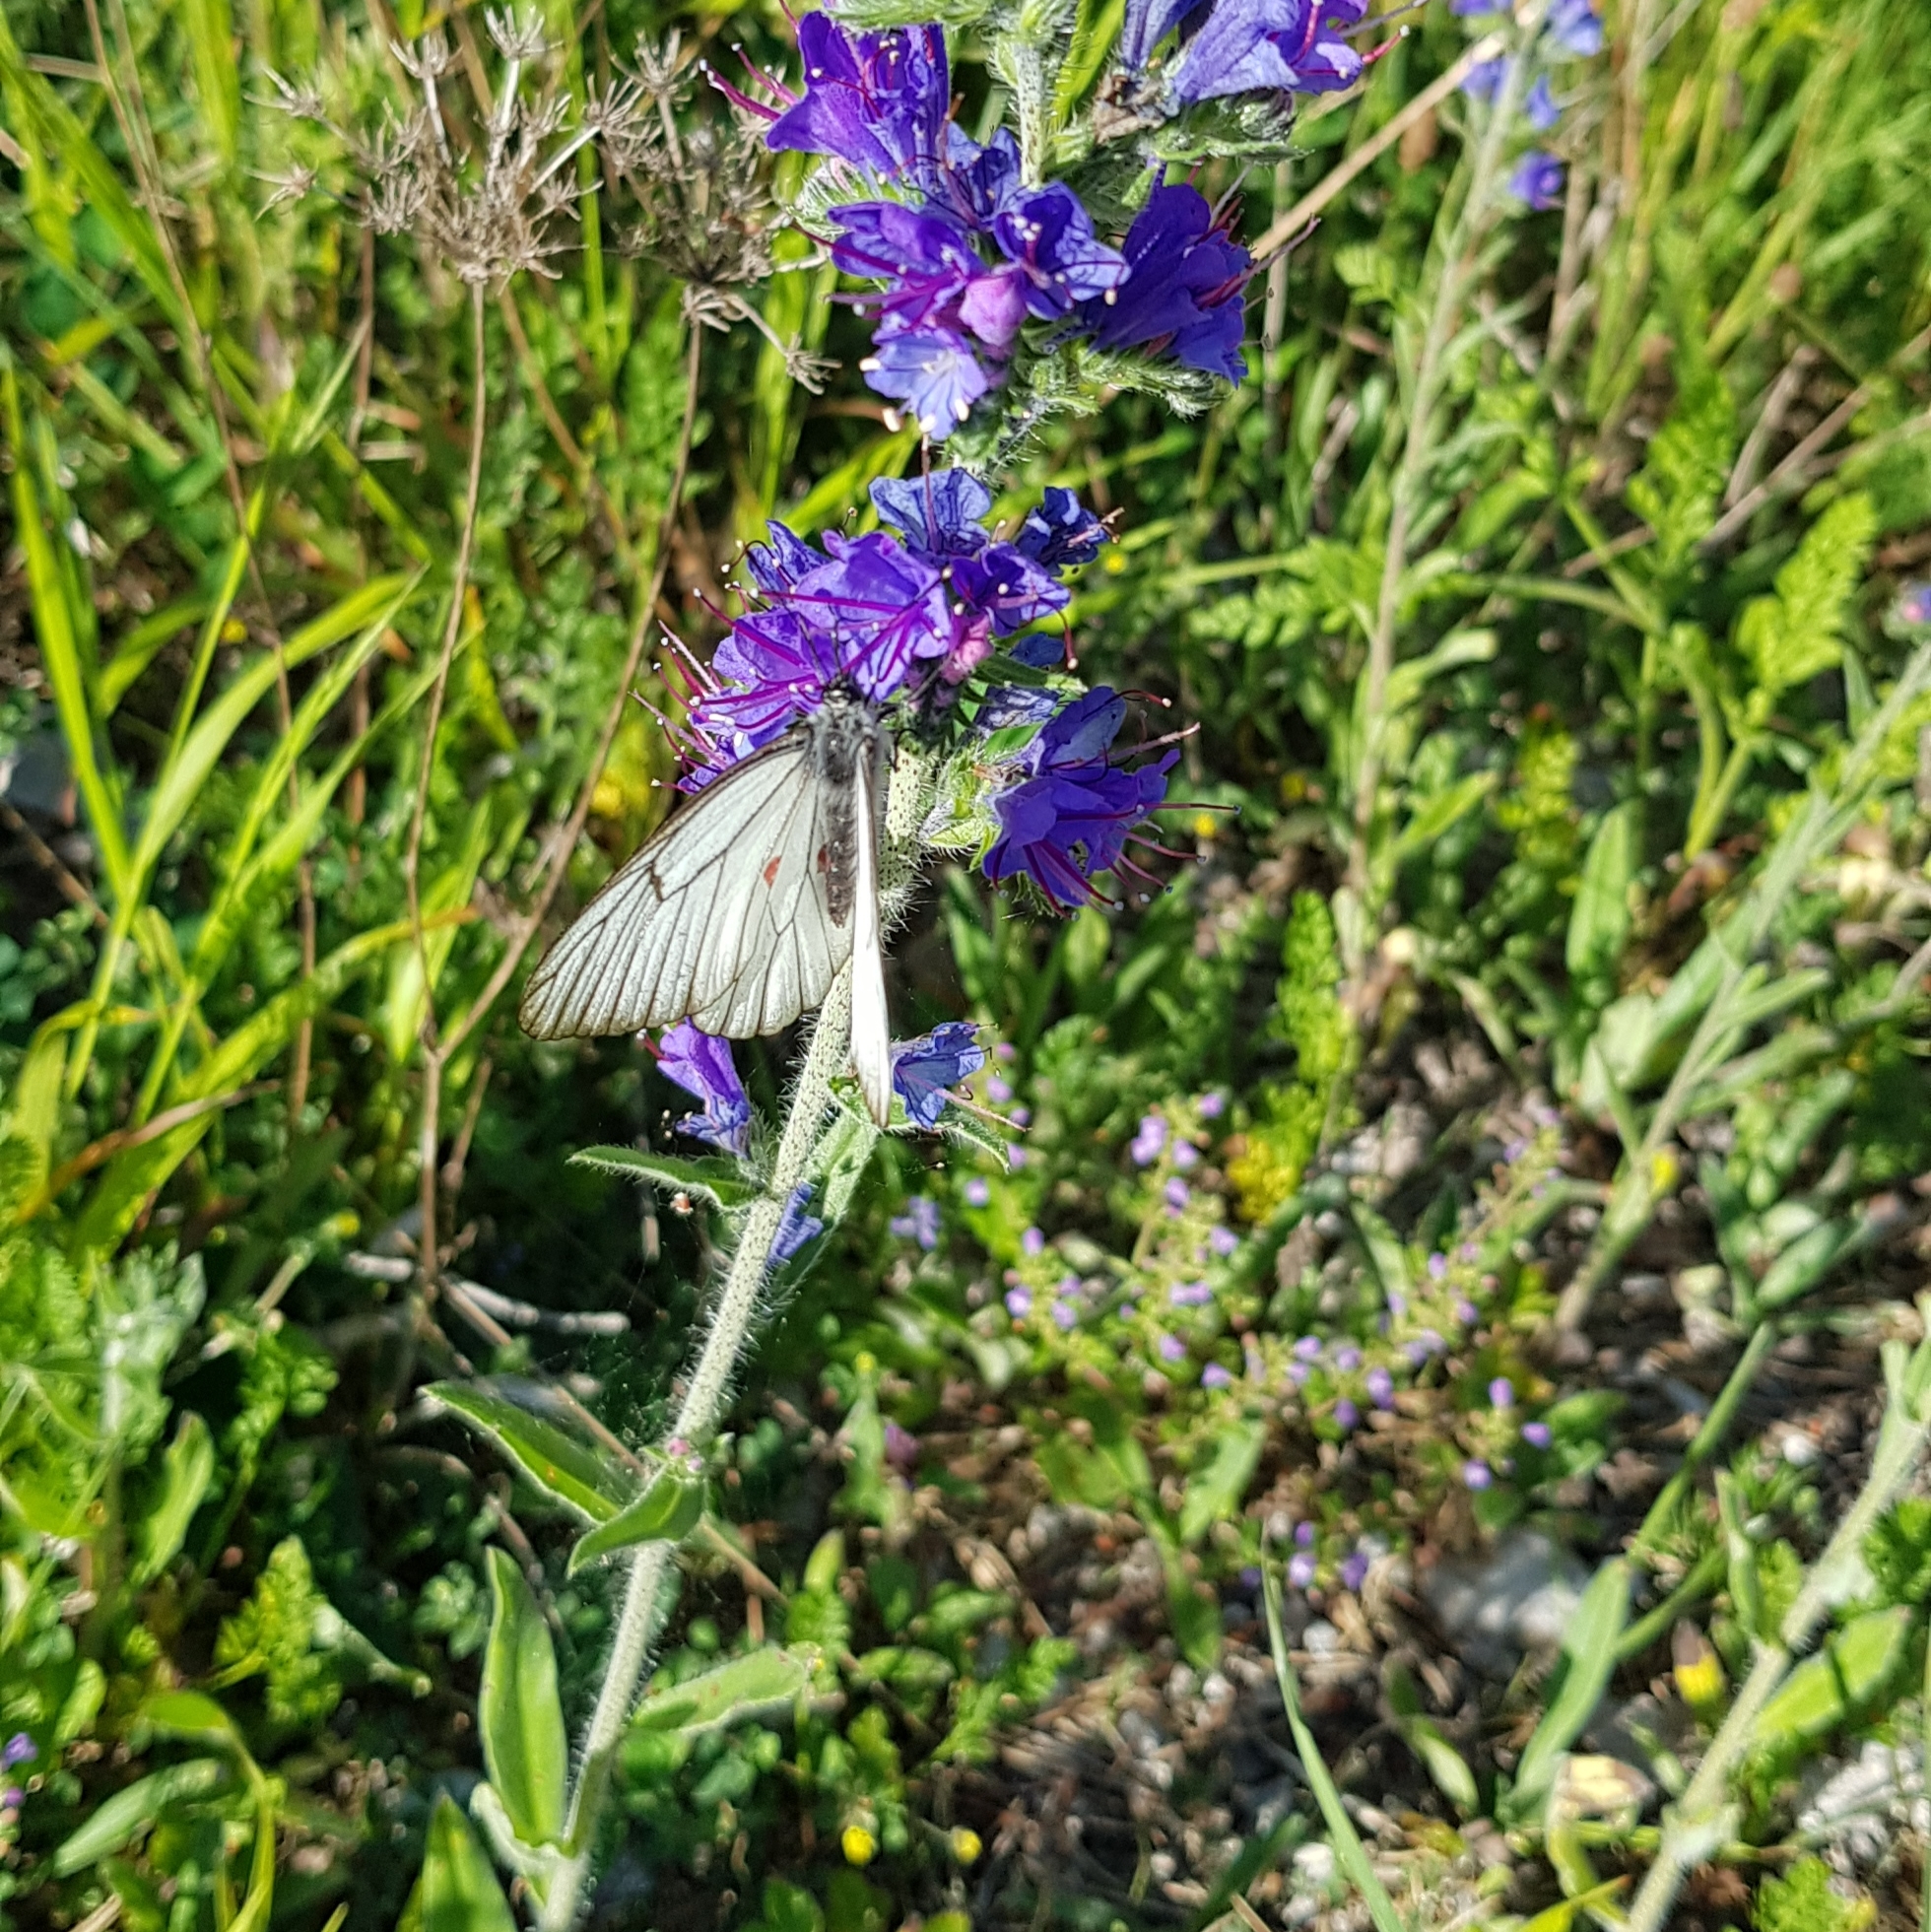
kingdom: Animalia
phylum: Arthropoda
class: Insecta
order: Lepidoptera
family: Pieridae
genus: Aporia
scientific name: Aporia crataegi
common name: Black-veined white
